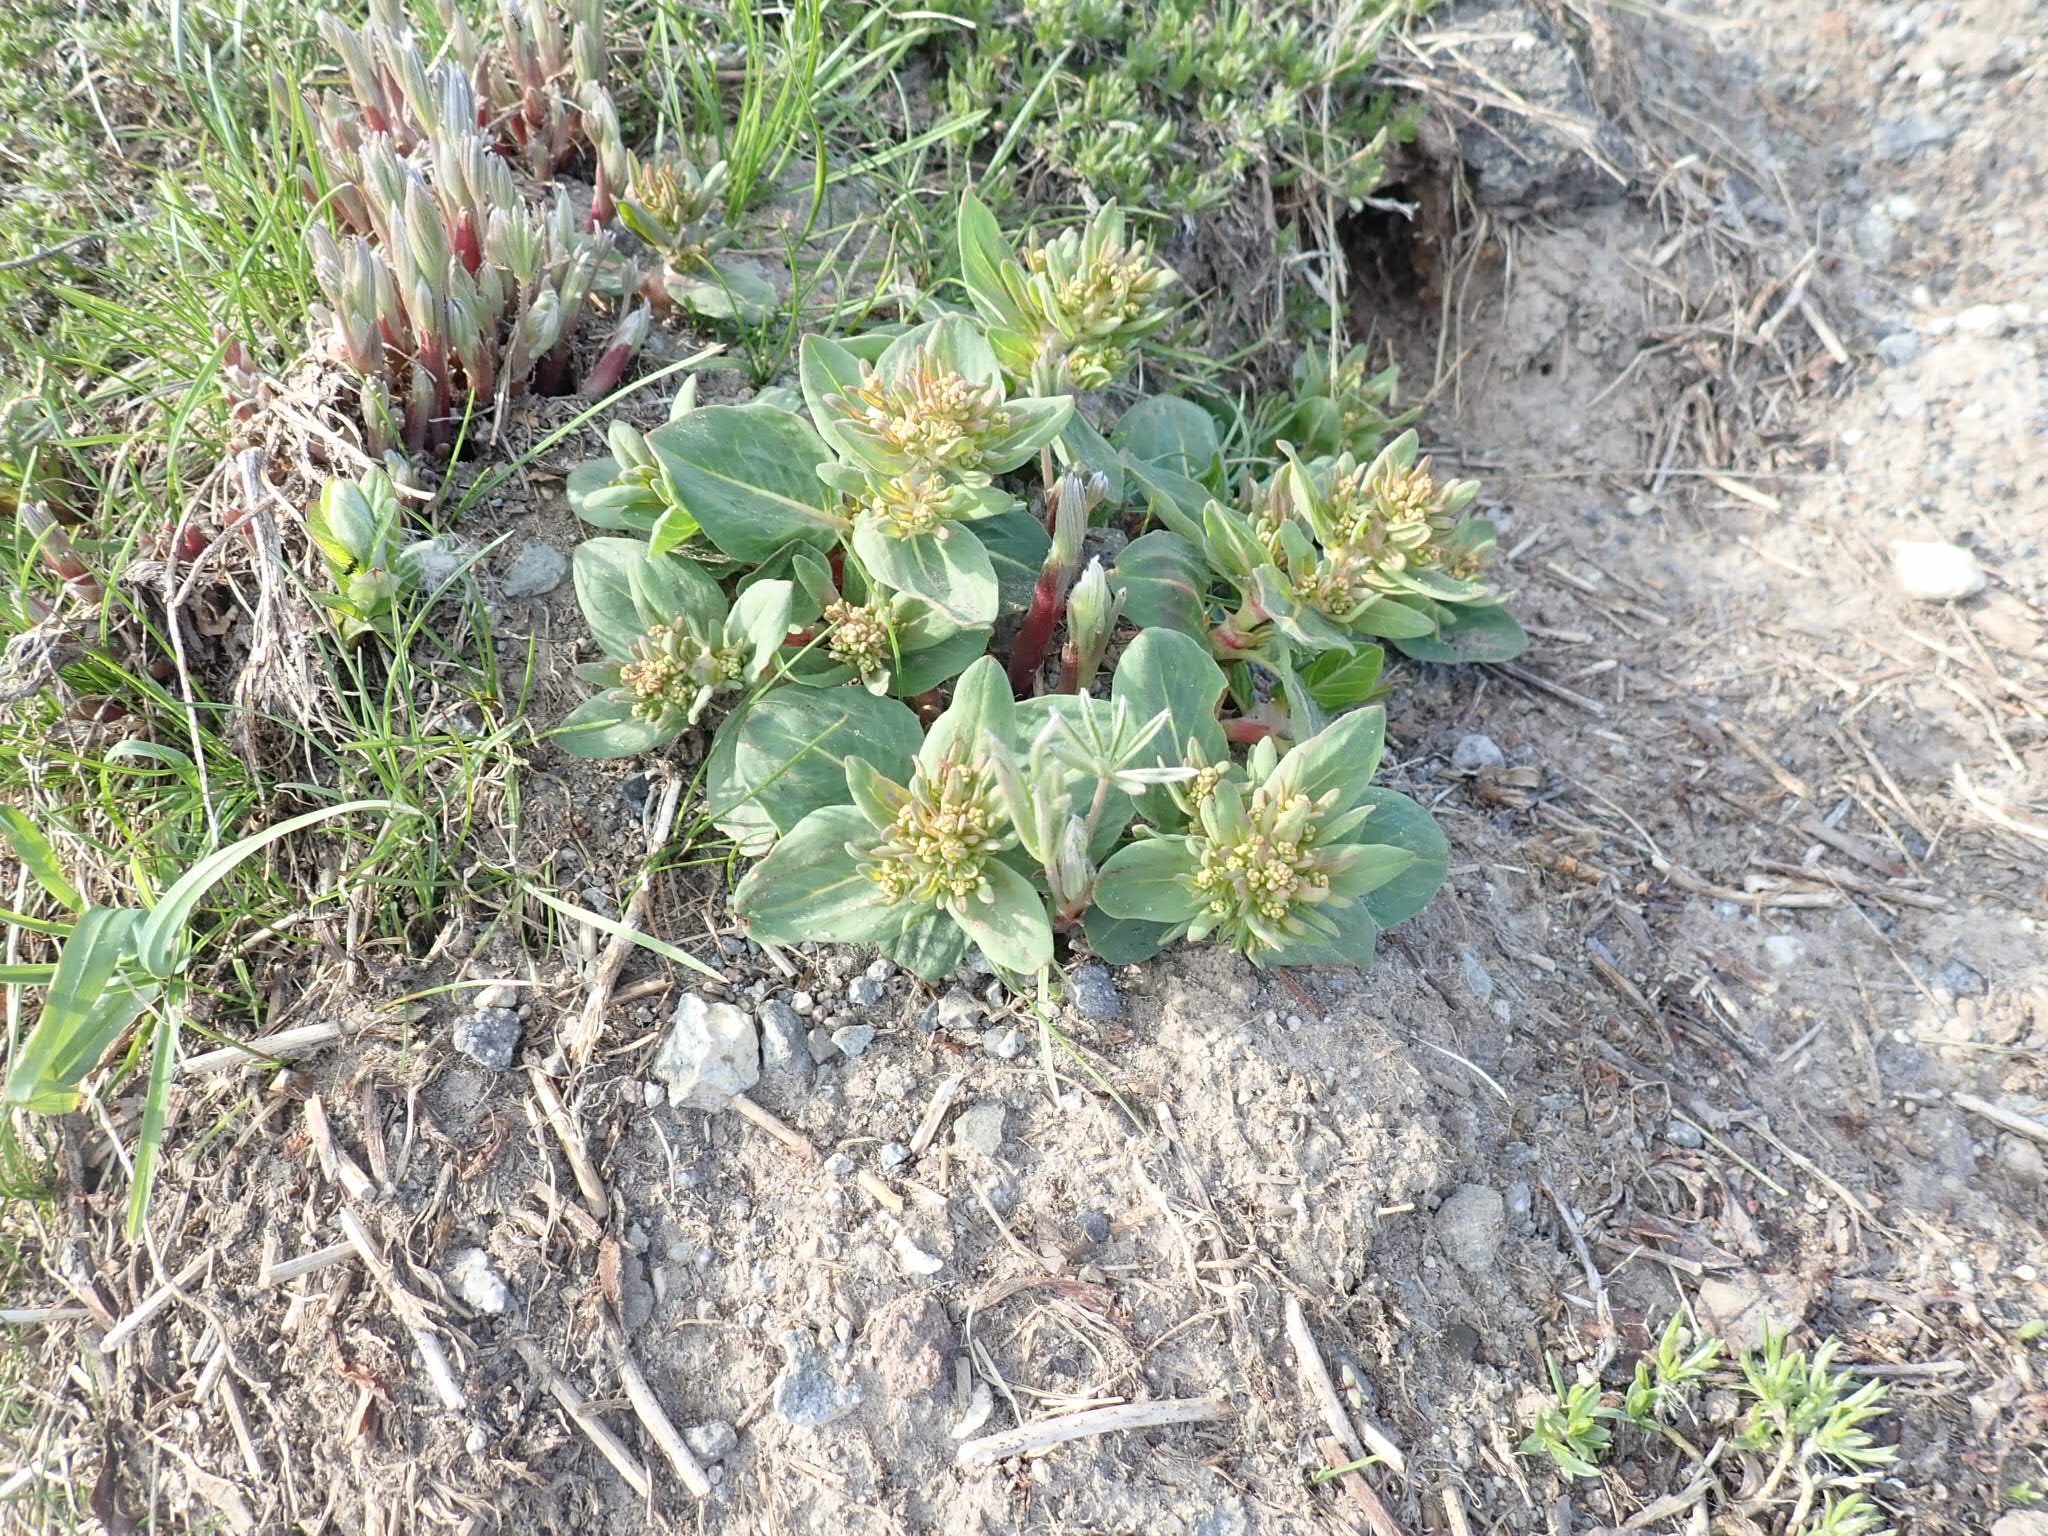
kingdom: Plantae
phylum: Tracheophyta
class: Magnoliopsida
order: Caryophyllales
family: Polygonaceae
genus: Koenigia
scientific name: Koenigia davisiae
